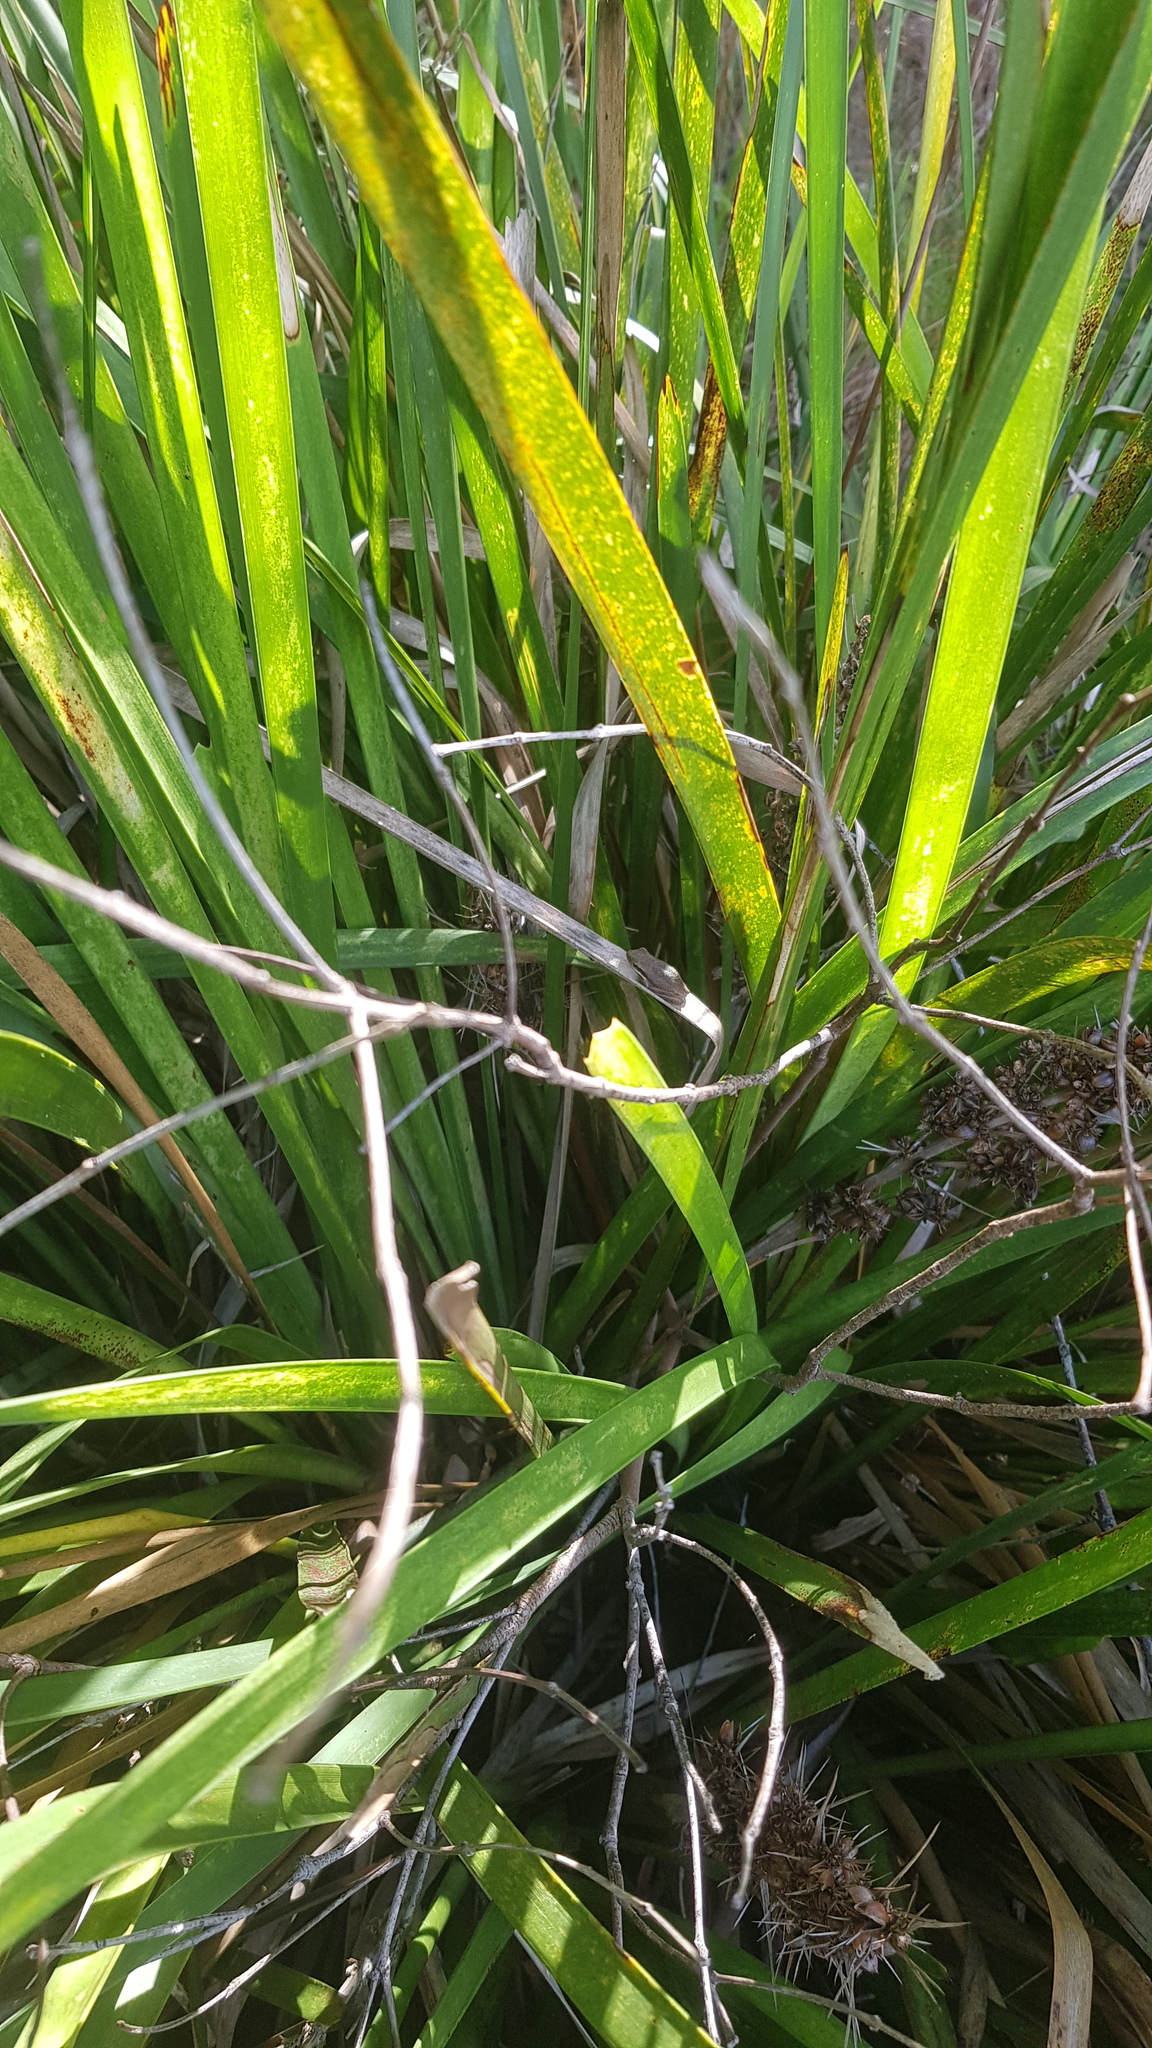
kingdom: Animalia
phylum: Chordata
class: Amphibia
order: Anura
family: Pelodryadidae
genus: Litoria
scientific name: Litoria fallax
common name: Eastern dwarf treefrog
